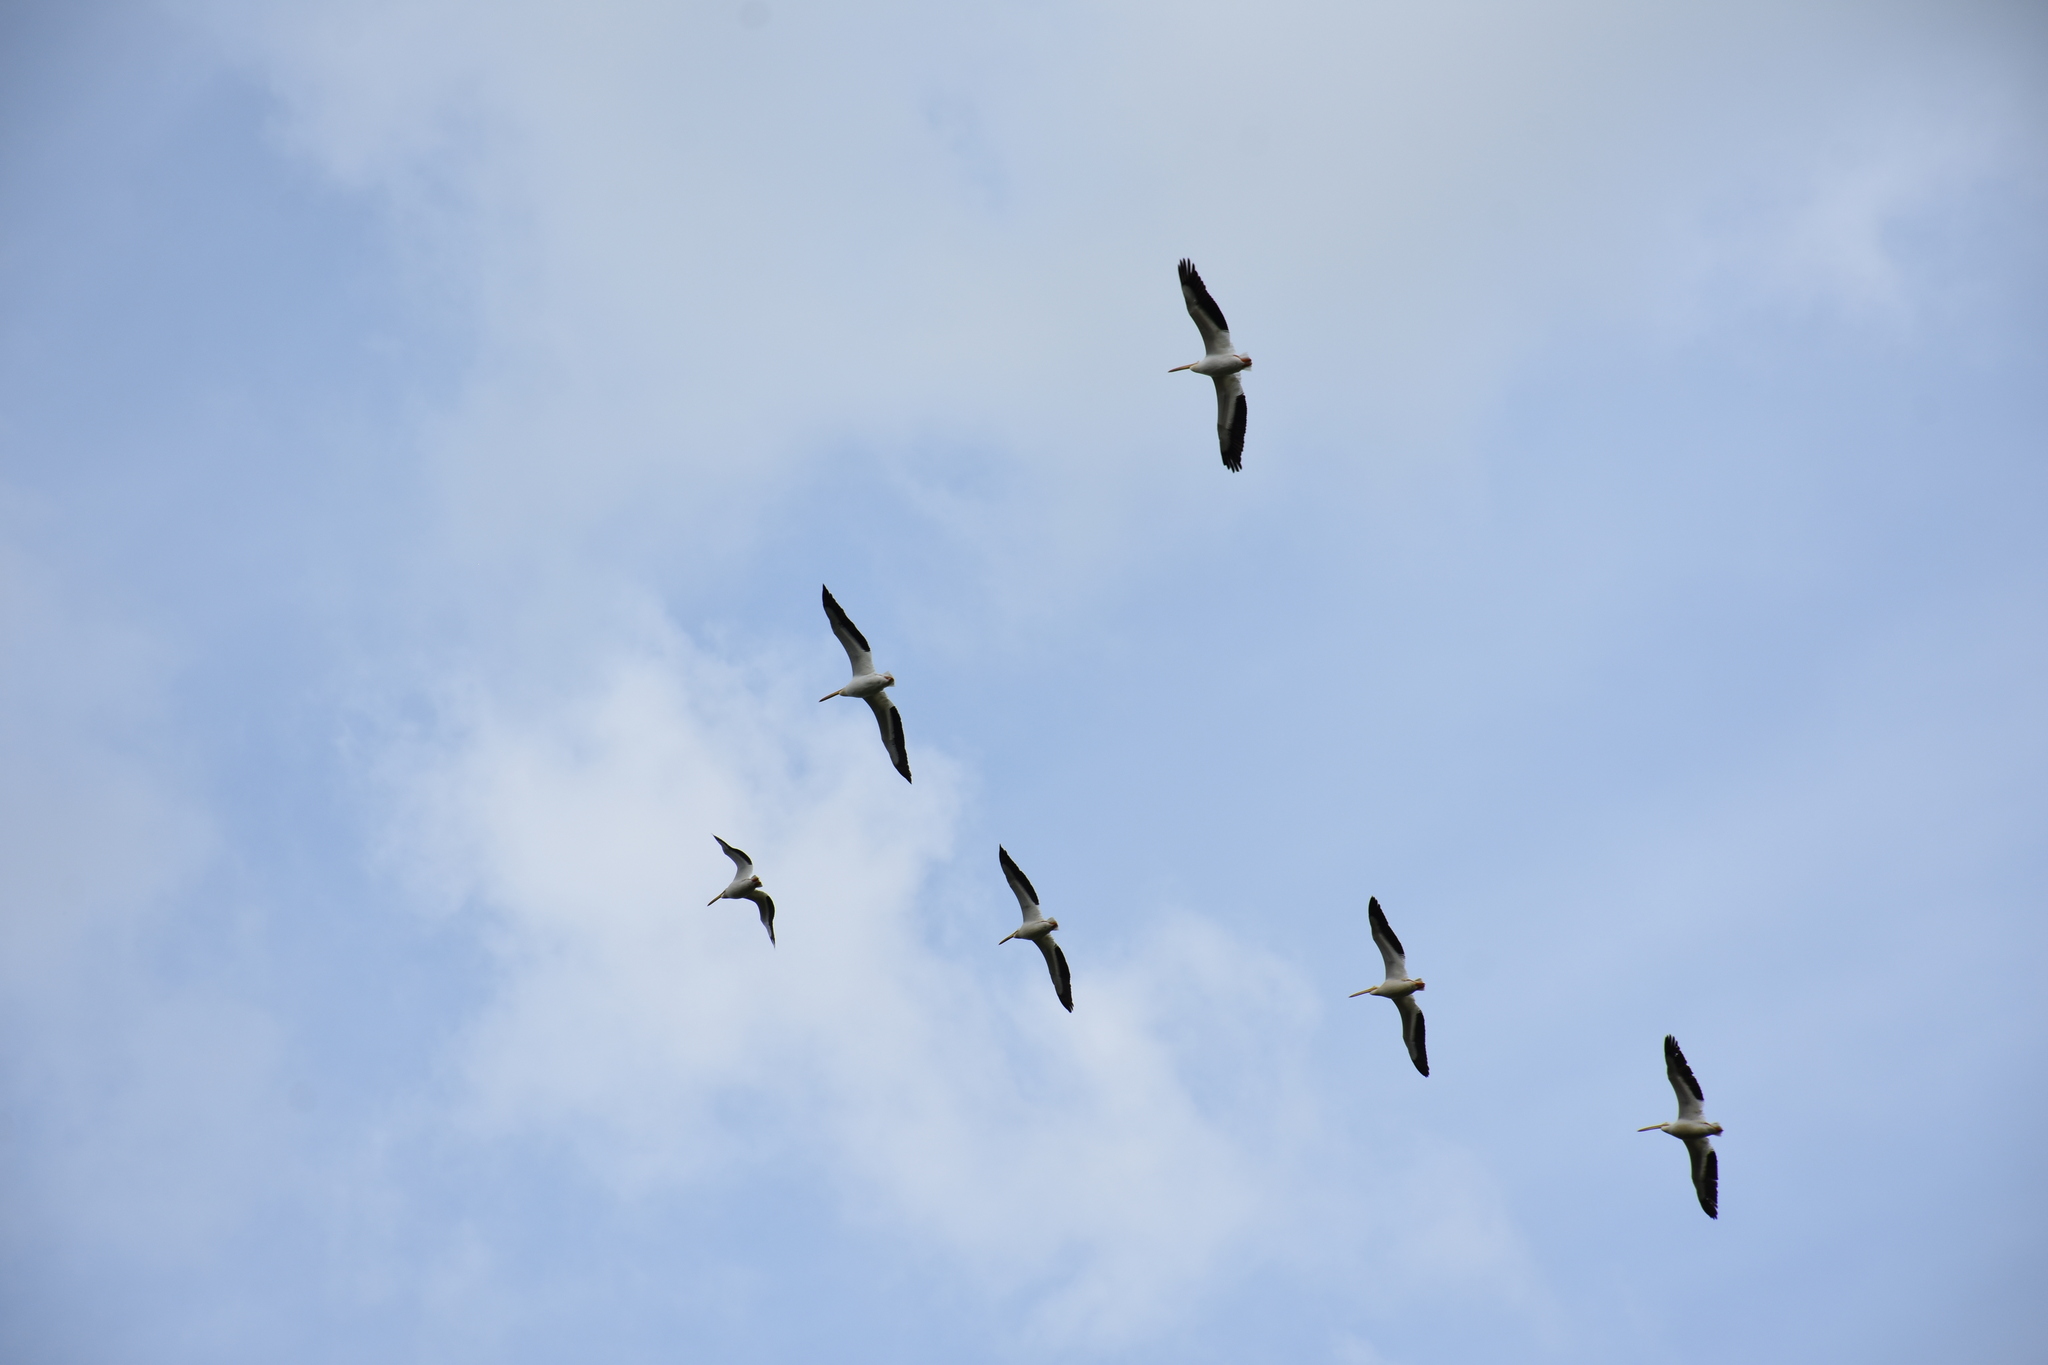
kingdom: Animalia
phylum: Chordata
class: Aves
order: Pelecaniformes
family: Pelecanidae
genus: Pelecanus
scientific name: Pelecanus erythrorhynchos
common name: American white pelican
